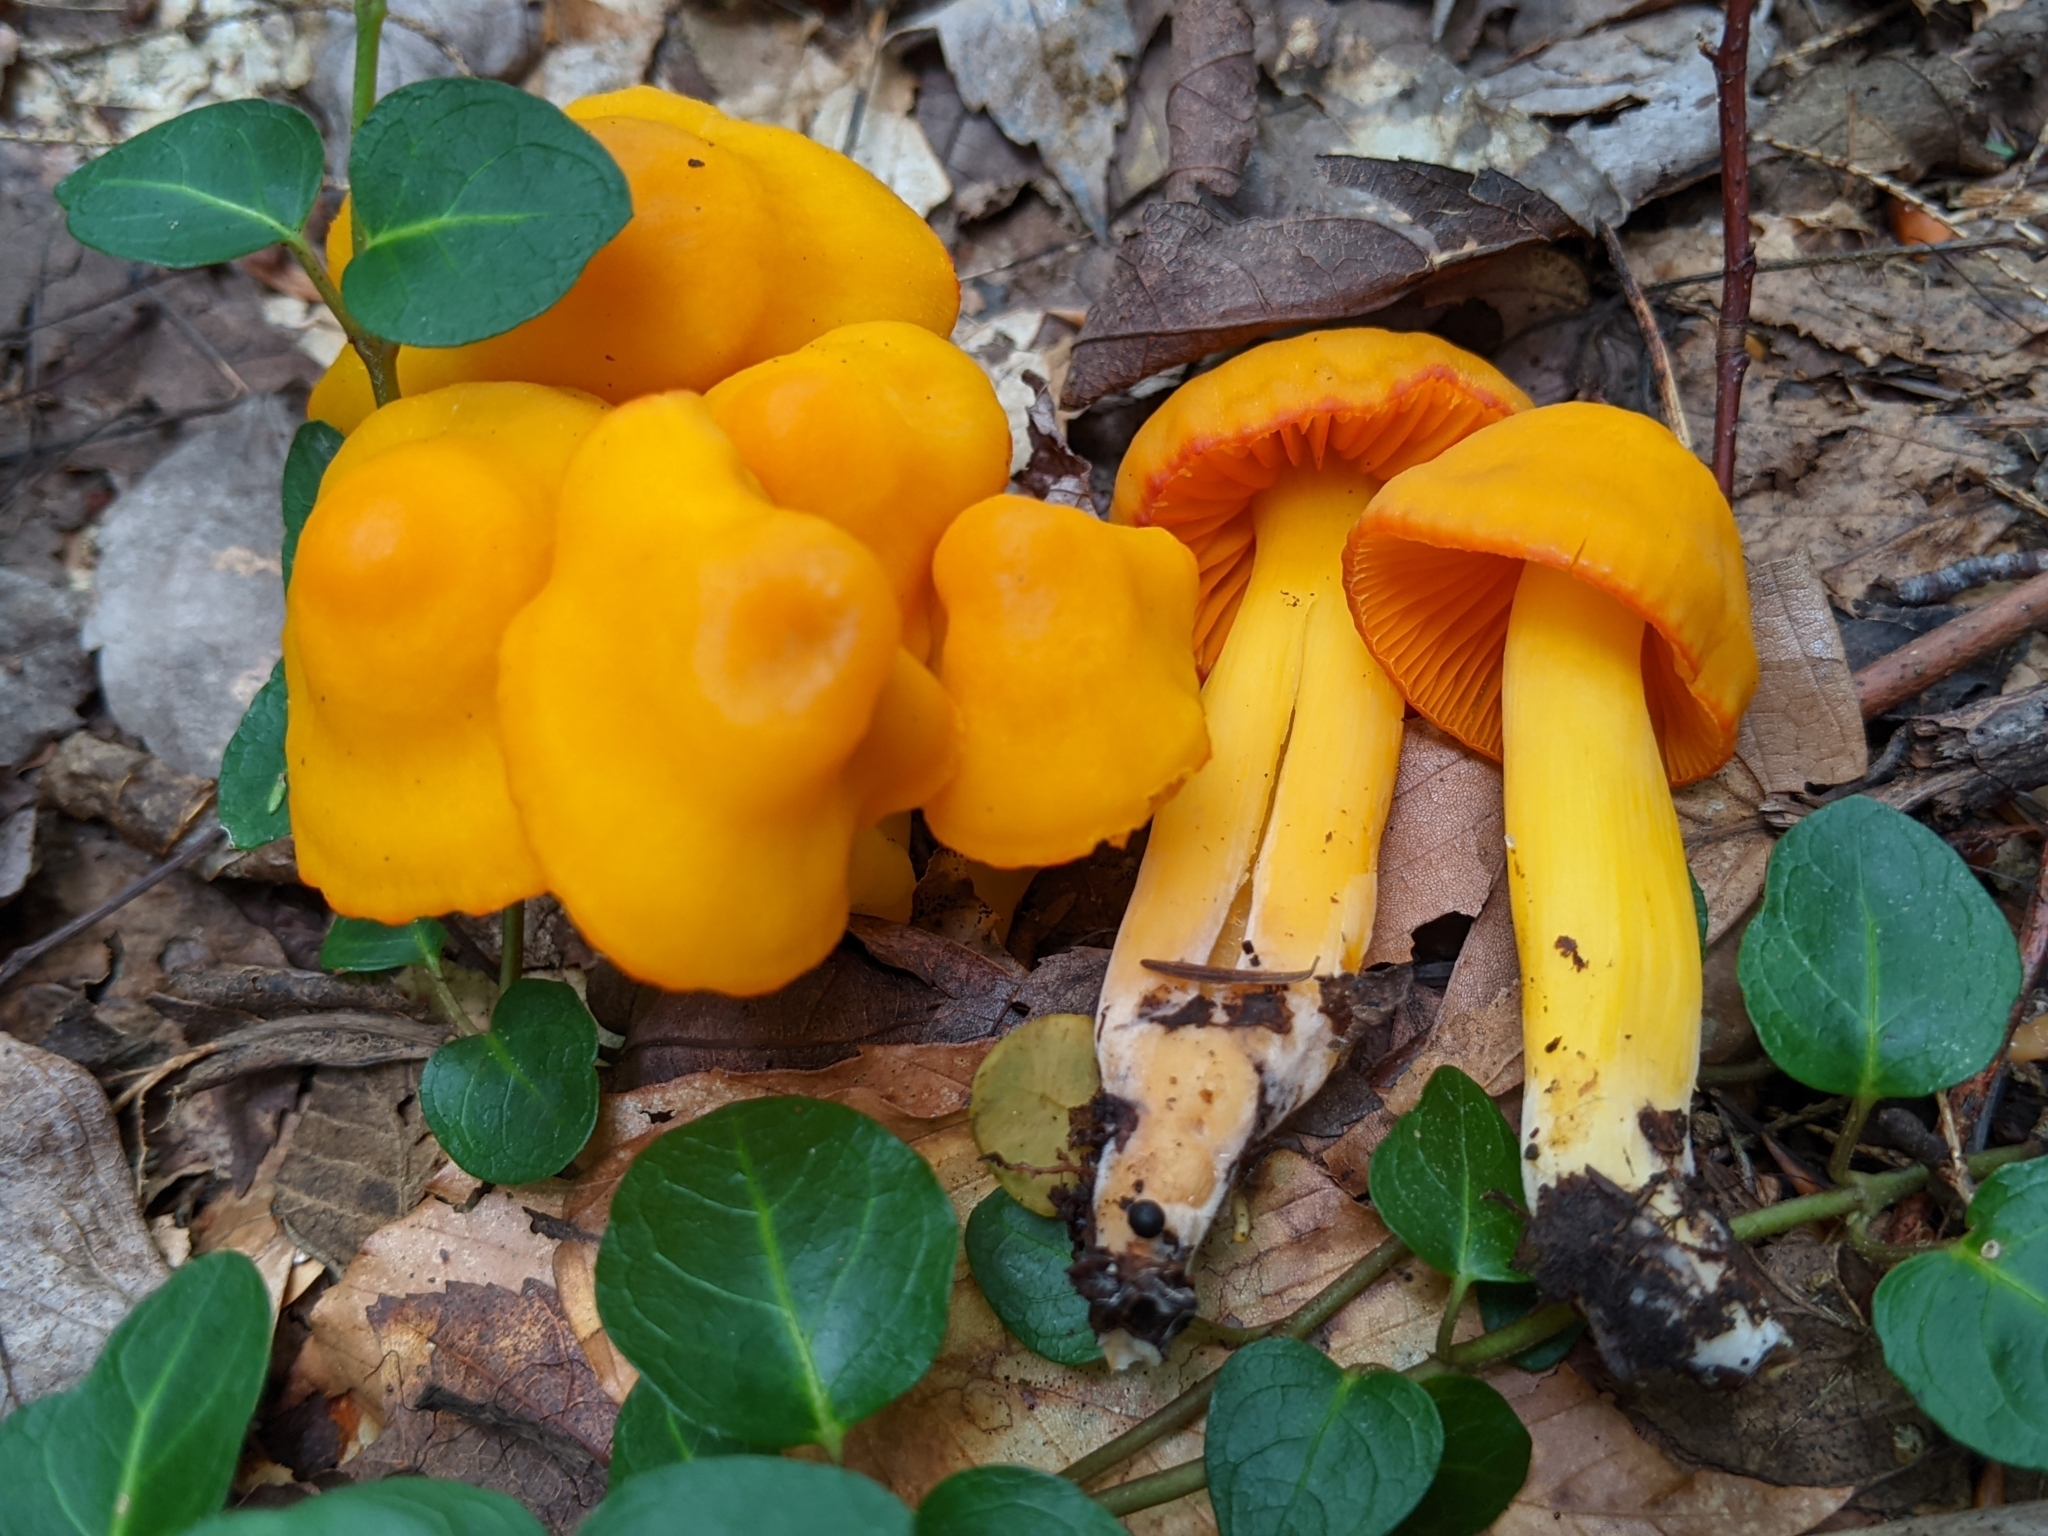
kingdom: Fungi
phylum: Basidiomycota
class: Agaricomycetes
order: Agaricales
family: Hygrophoraceae
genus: Humidicutis
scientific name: Humidicutis marginata
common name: Orange gilled waxcap
